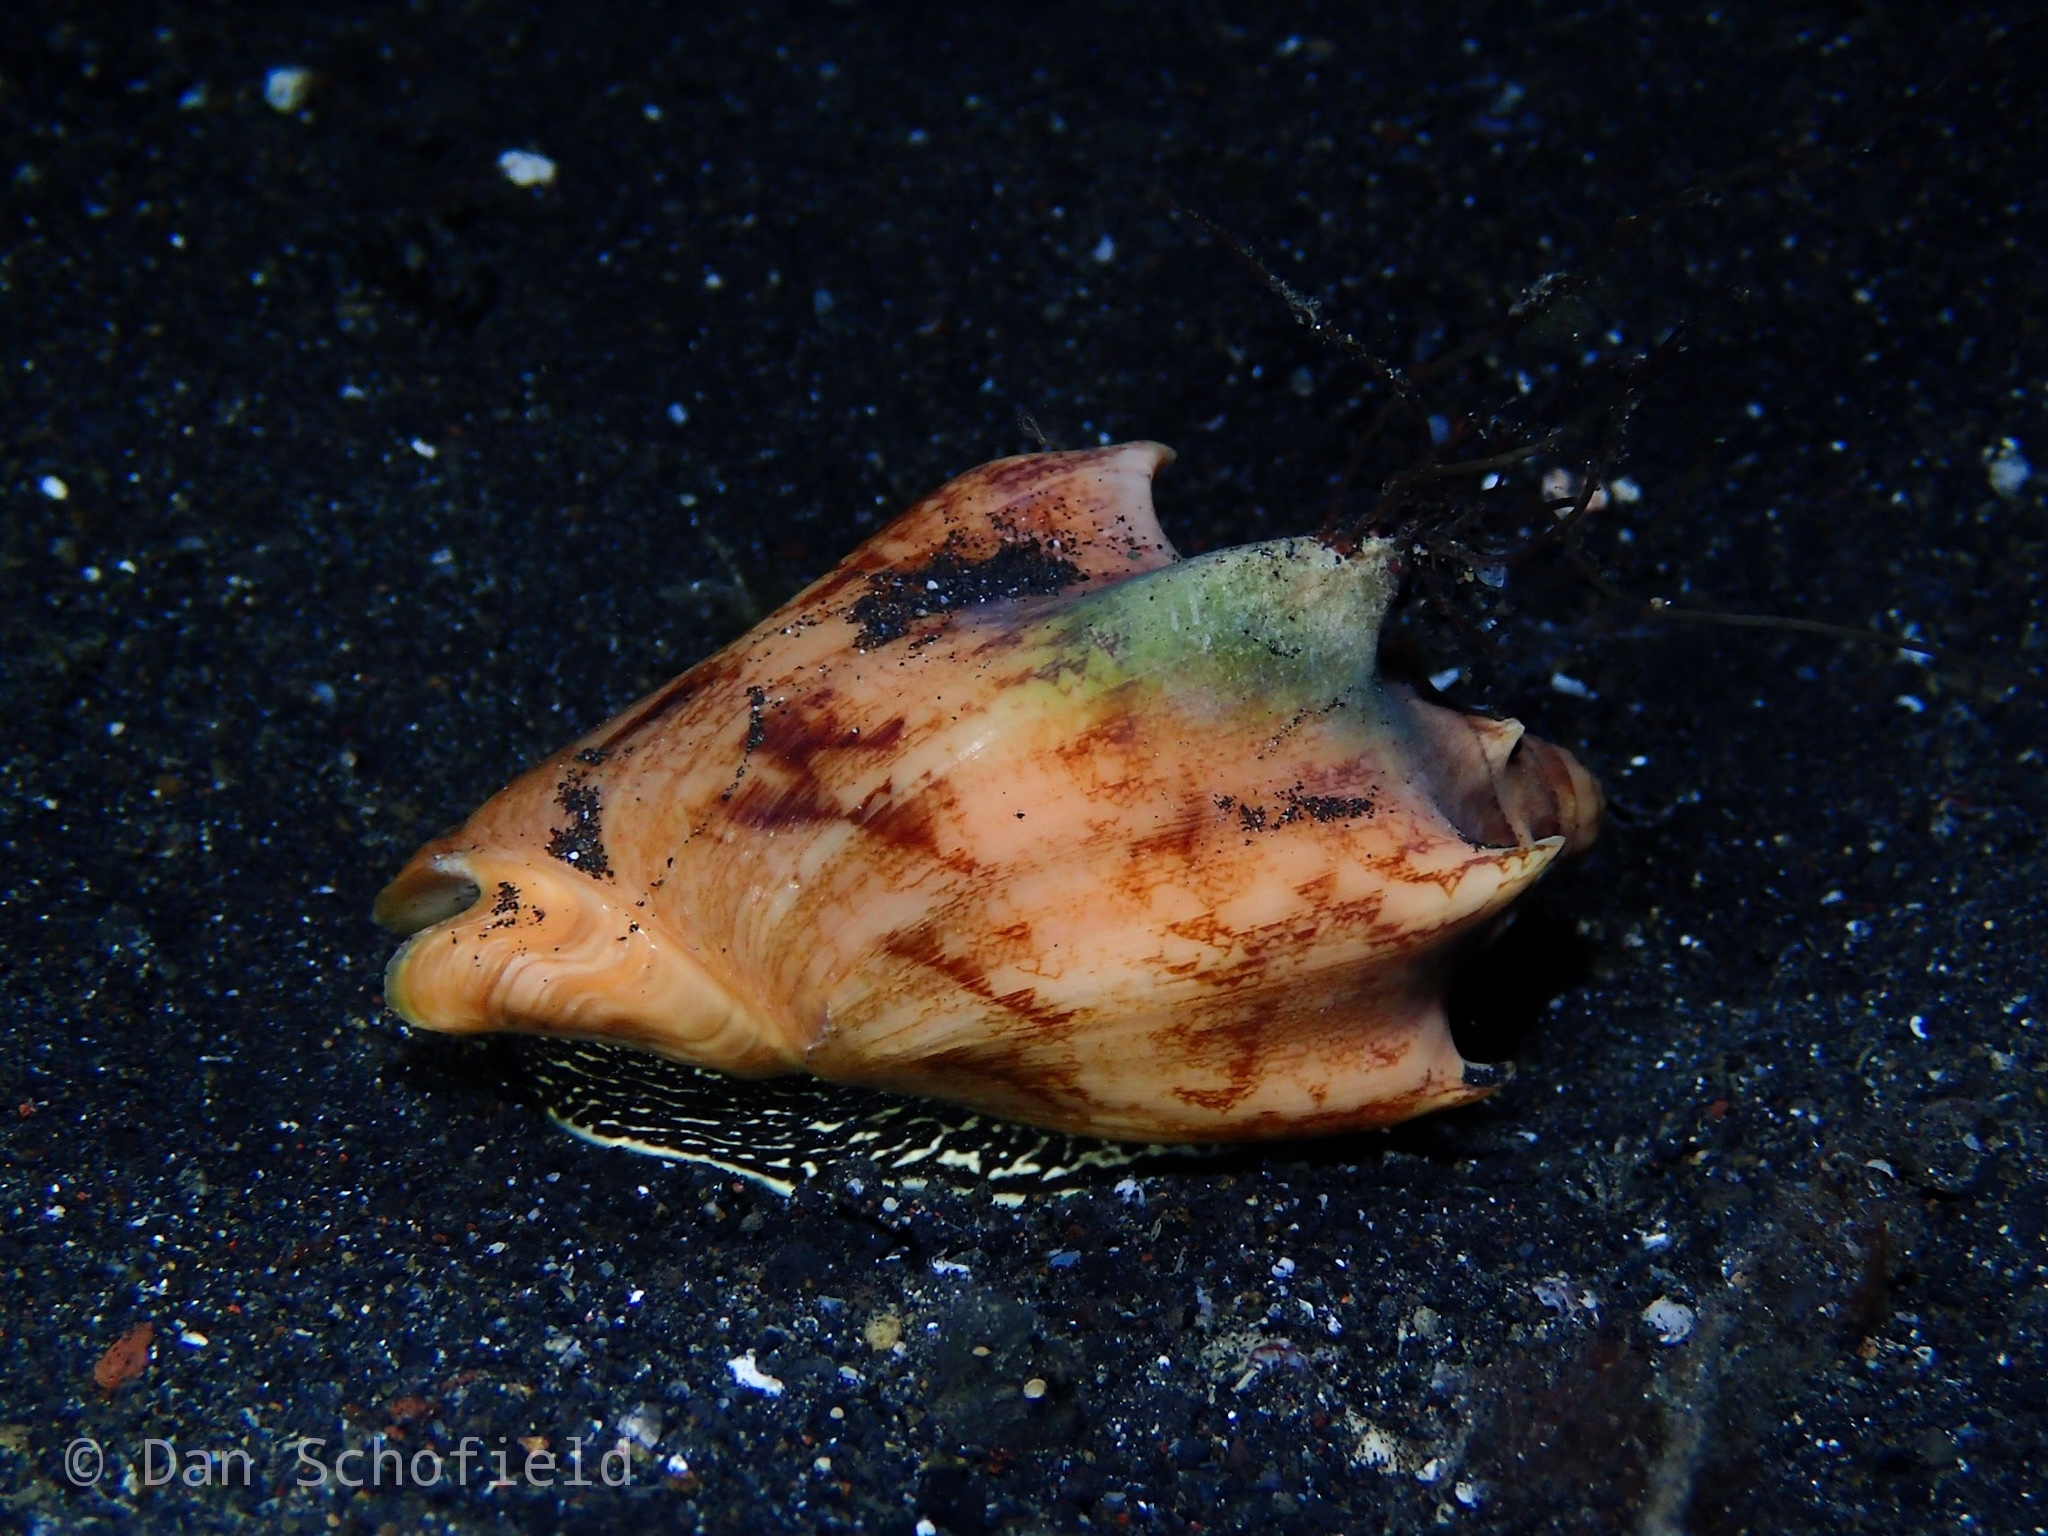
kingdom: Animalia
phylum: Mollusca
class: Gastropoda
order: Neogastropoda
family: Volutidae
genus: Cymbiola
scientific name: Cymbiola vespertilio
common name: Bat volute
